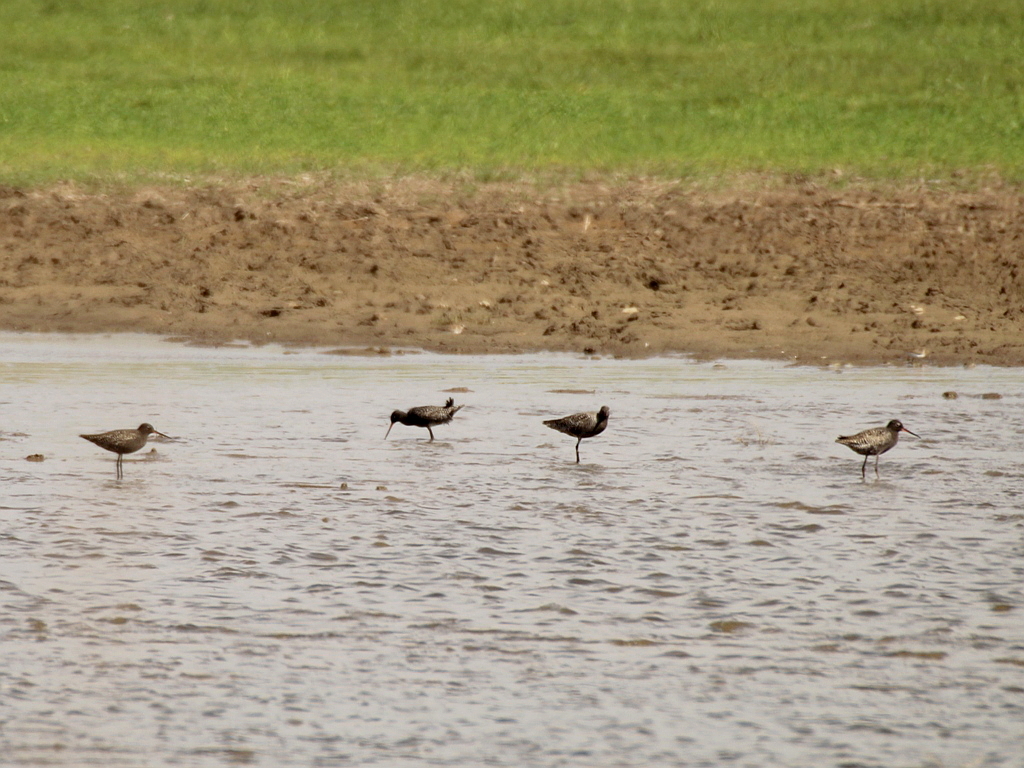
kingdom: Animalia
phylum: Chordata
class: Aves
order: Charadriiformes
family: Scolopacidae
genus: Tringa
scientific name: Tringa erythropus
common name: Spotted redshank
